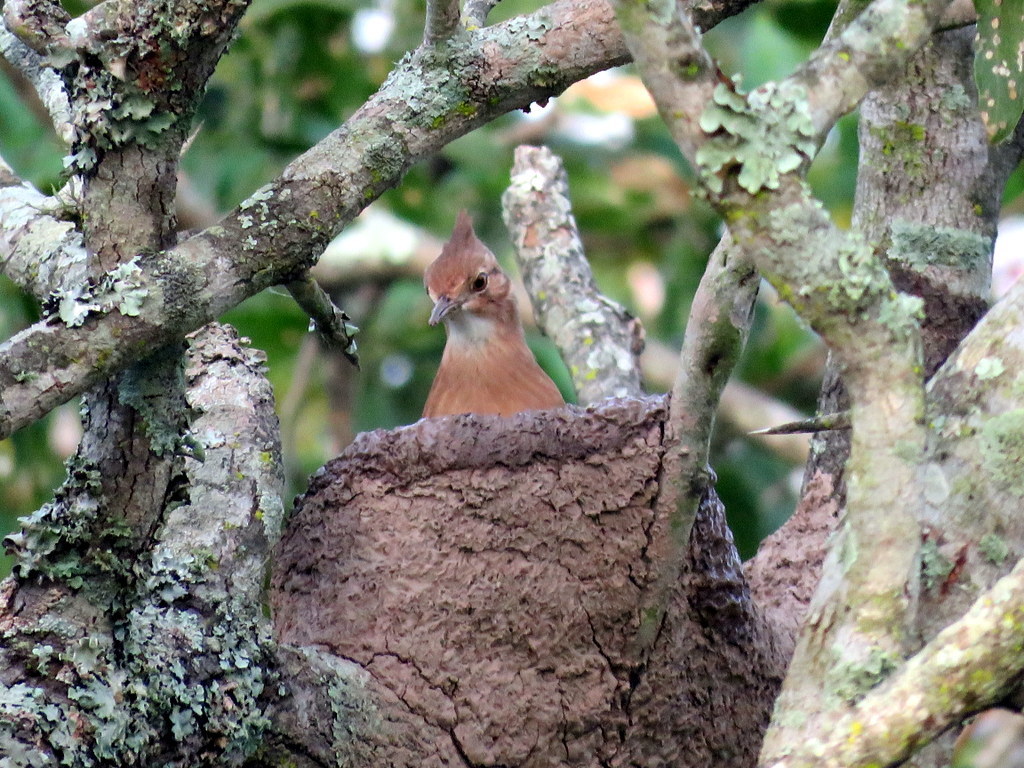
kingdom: Animalia
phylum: Chordata
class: Aves
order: Passeriformes
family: Furnariidae
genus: Furnarius
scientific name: Furnarius cristatus
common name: Crested hornero
